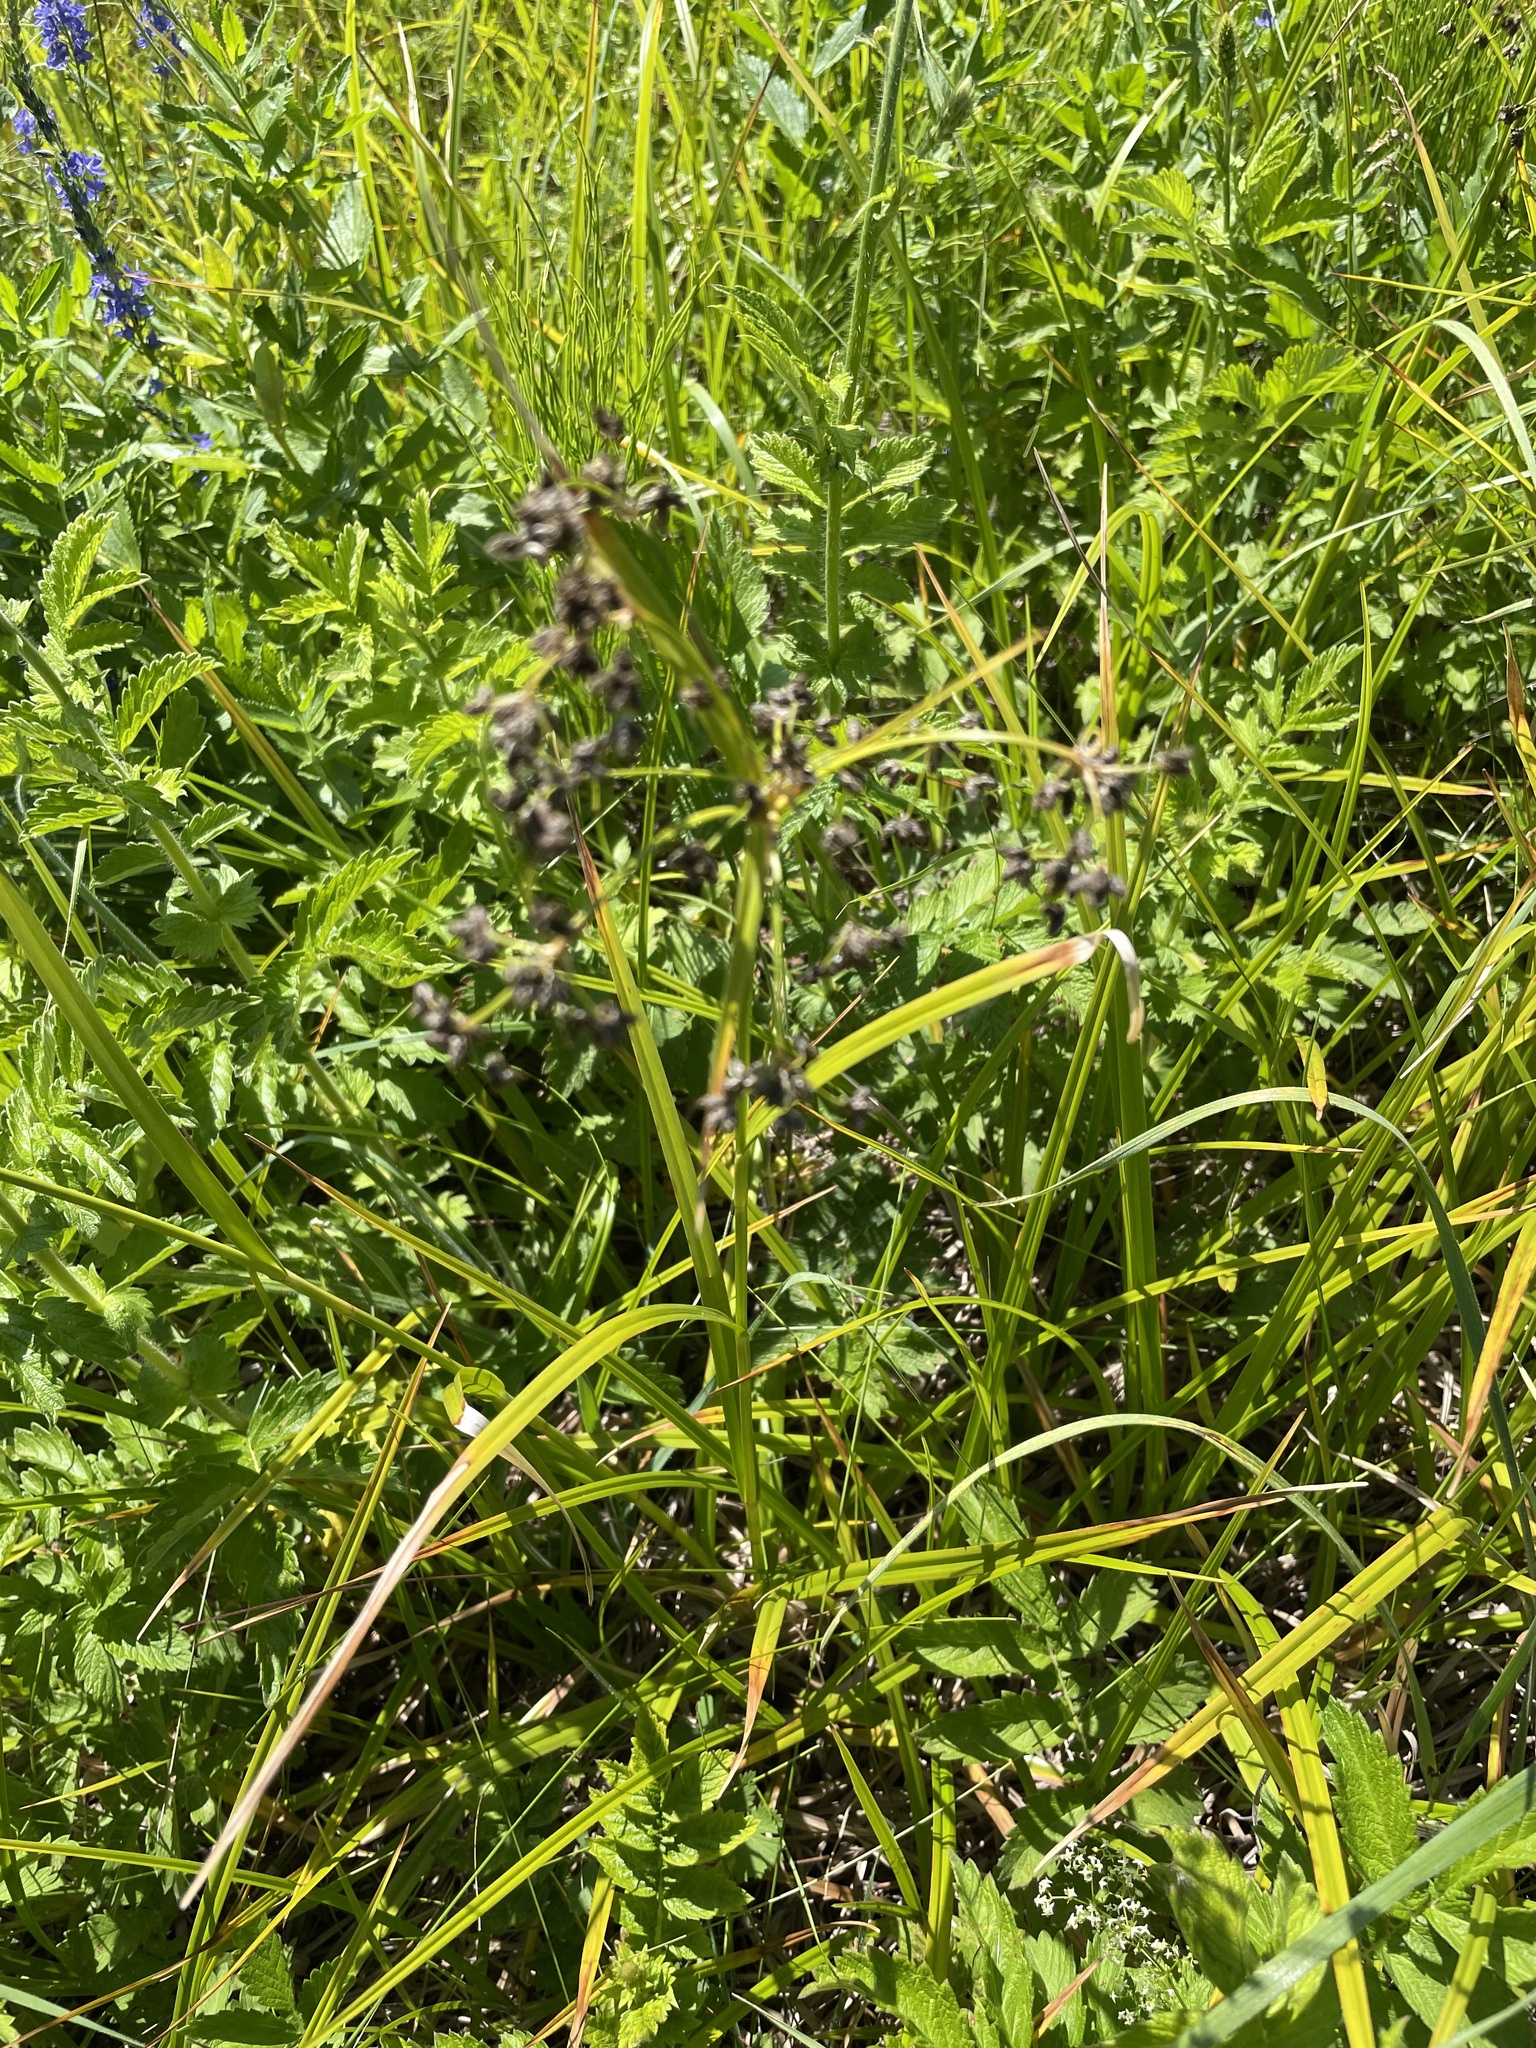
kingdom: Plantae
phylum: Tracheophyta
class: Liliopsida
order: Poales
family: Cyperaceae
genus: Scirpus
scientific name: Scirpus sylvaticus
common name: Wood club-rush
